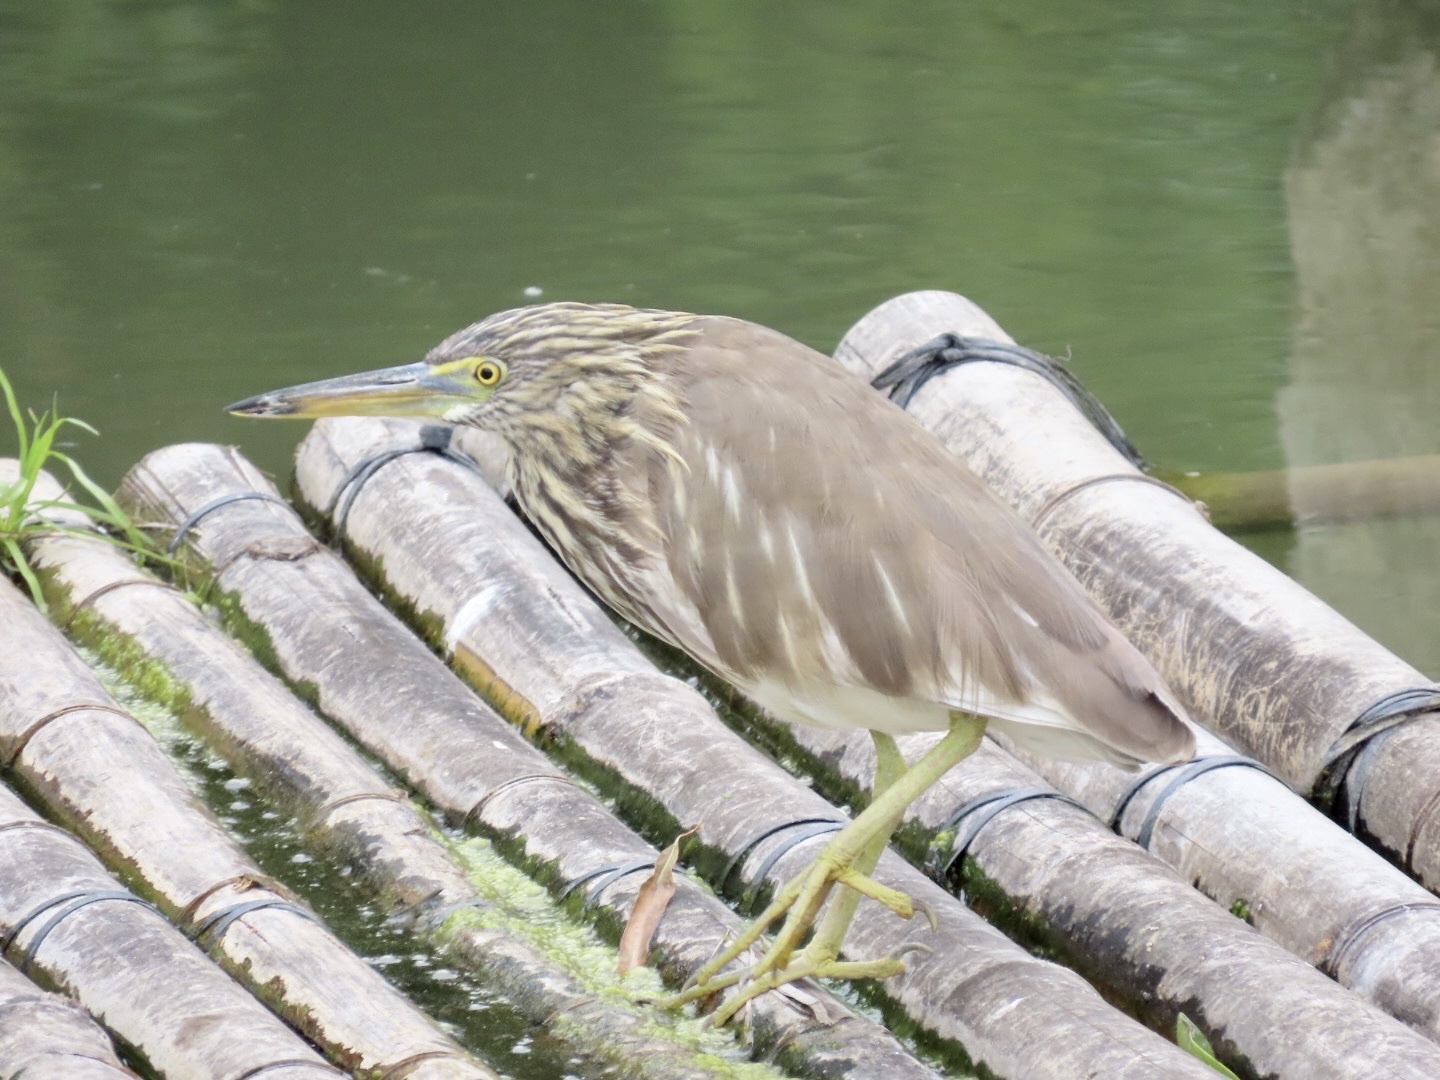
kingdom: Animalia
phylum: Chordata
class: Aves
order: Pelecaniformes
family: Ardeidae
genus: Ardeola
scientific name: Ardeola bacchus
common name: Chinese pond heron
